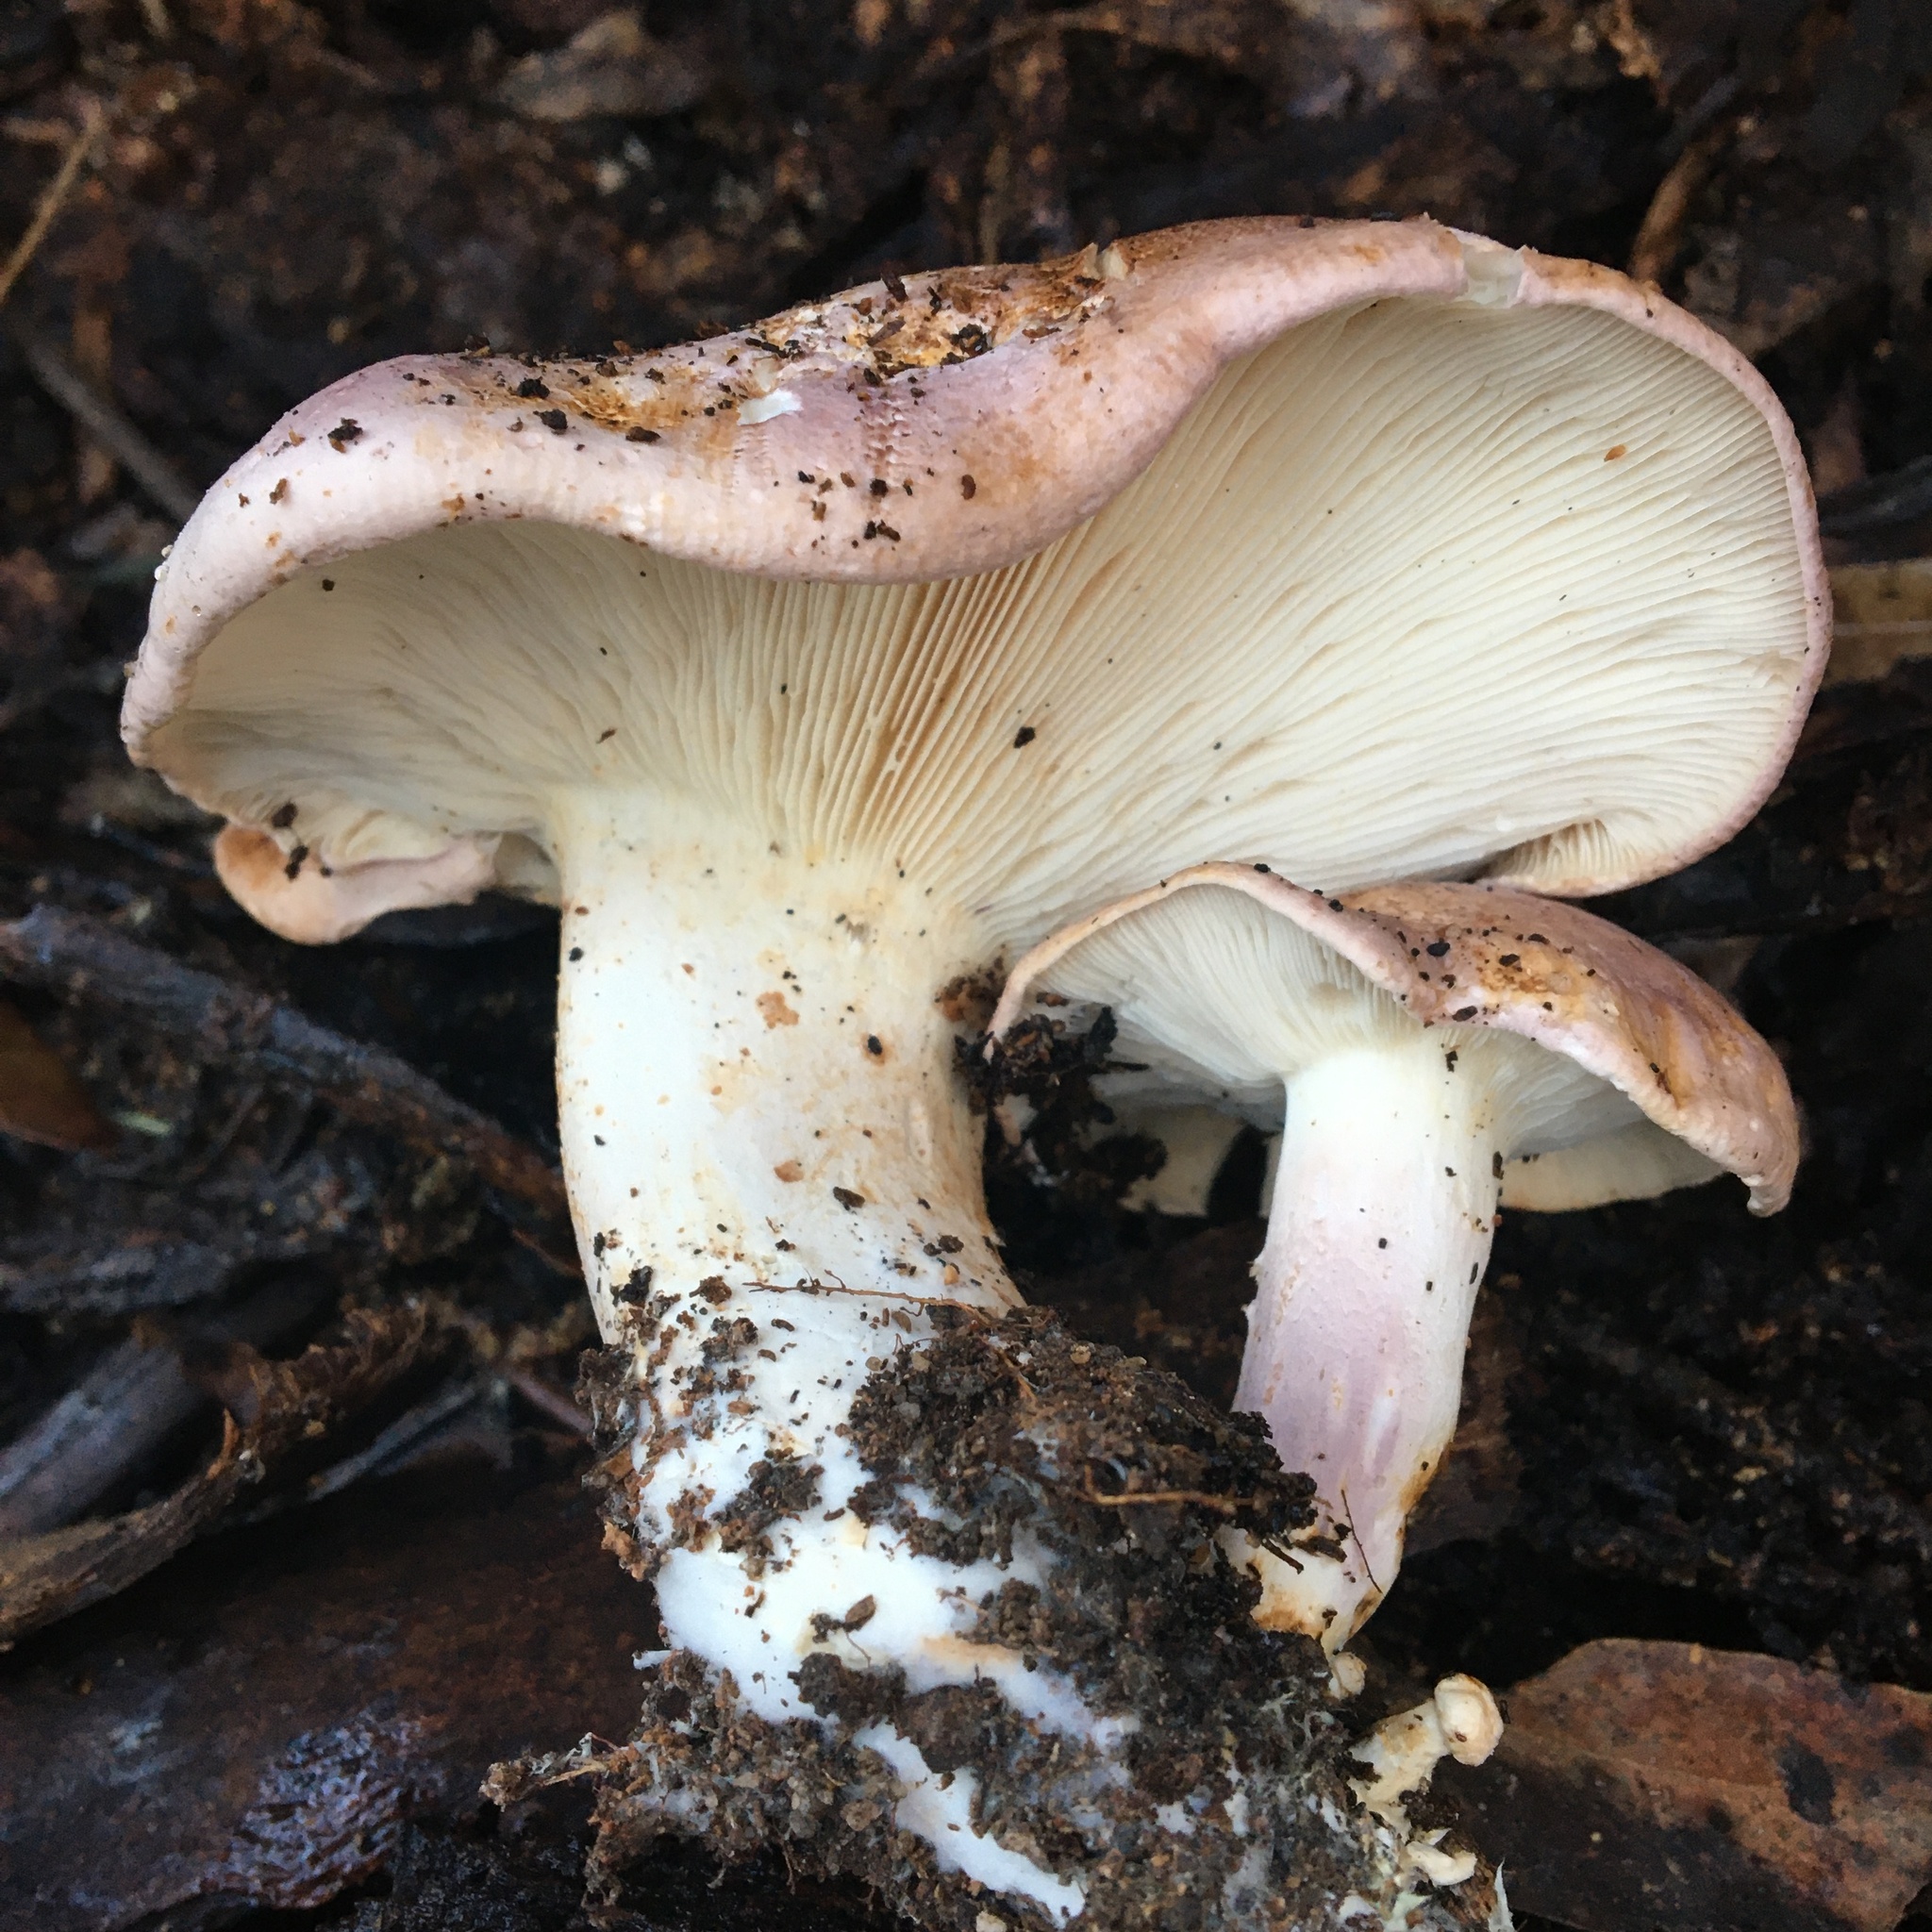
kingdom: Fungi
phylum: Basidiomycota
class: Agaricomycetes
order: Agaricales
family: Tricholomataceae
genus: Leucopaxillus
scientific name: Leucopaxillus lilacinus
